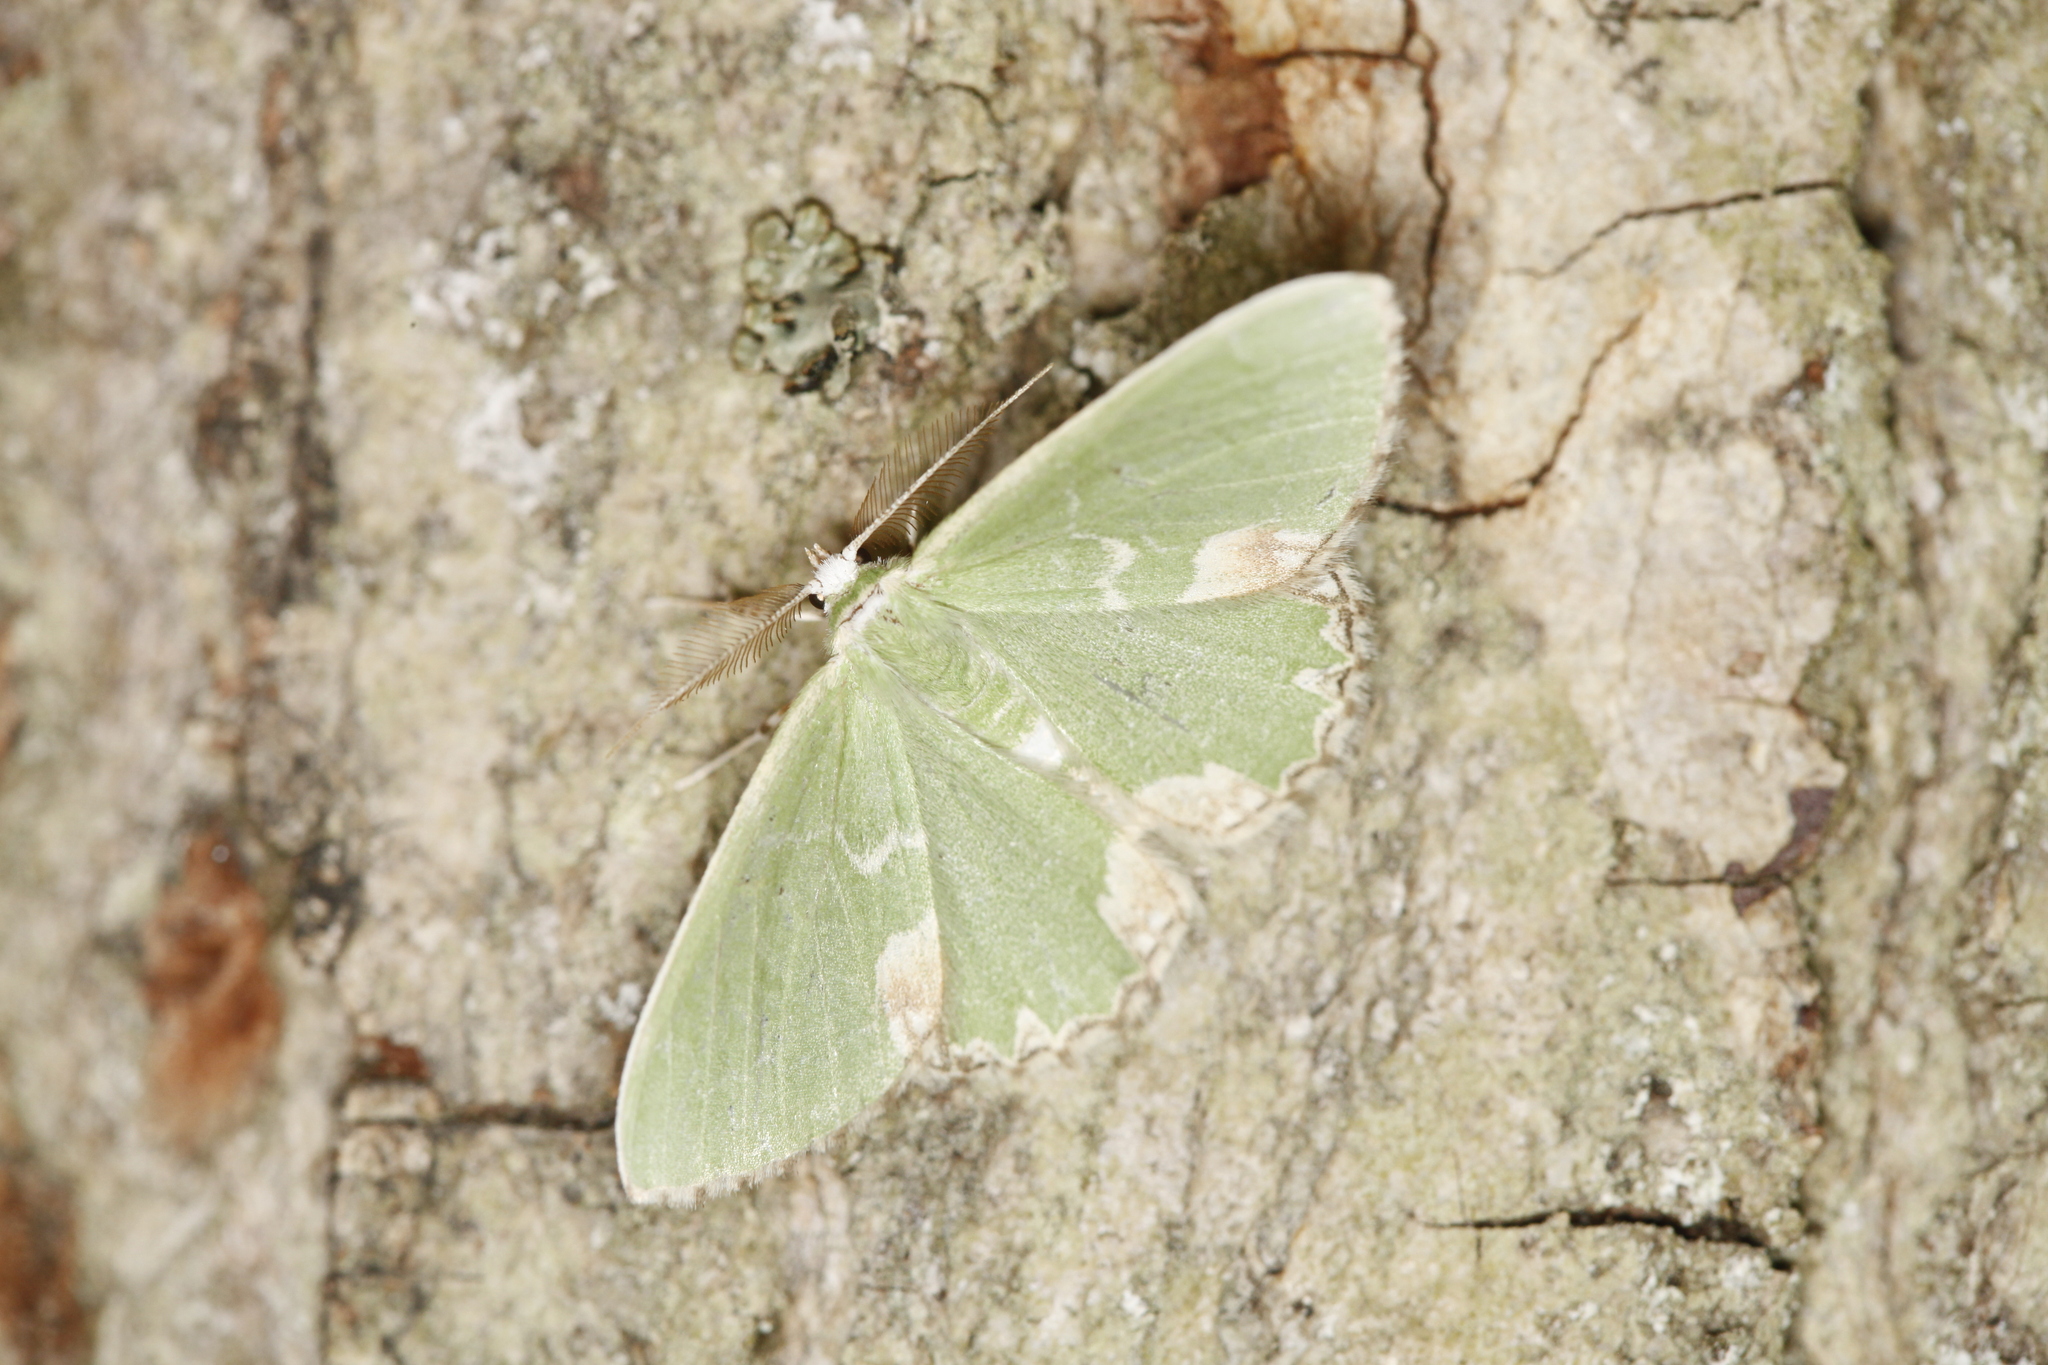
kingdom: Animalia
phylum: Arthropoda
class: Insecta
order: Lepidoptera
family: Geometridae
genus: Comibaena
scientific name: Comibaena bajularia
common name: Blotched emerald
